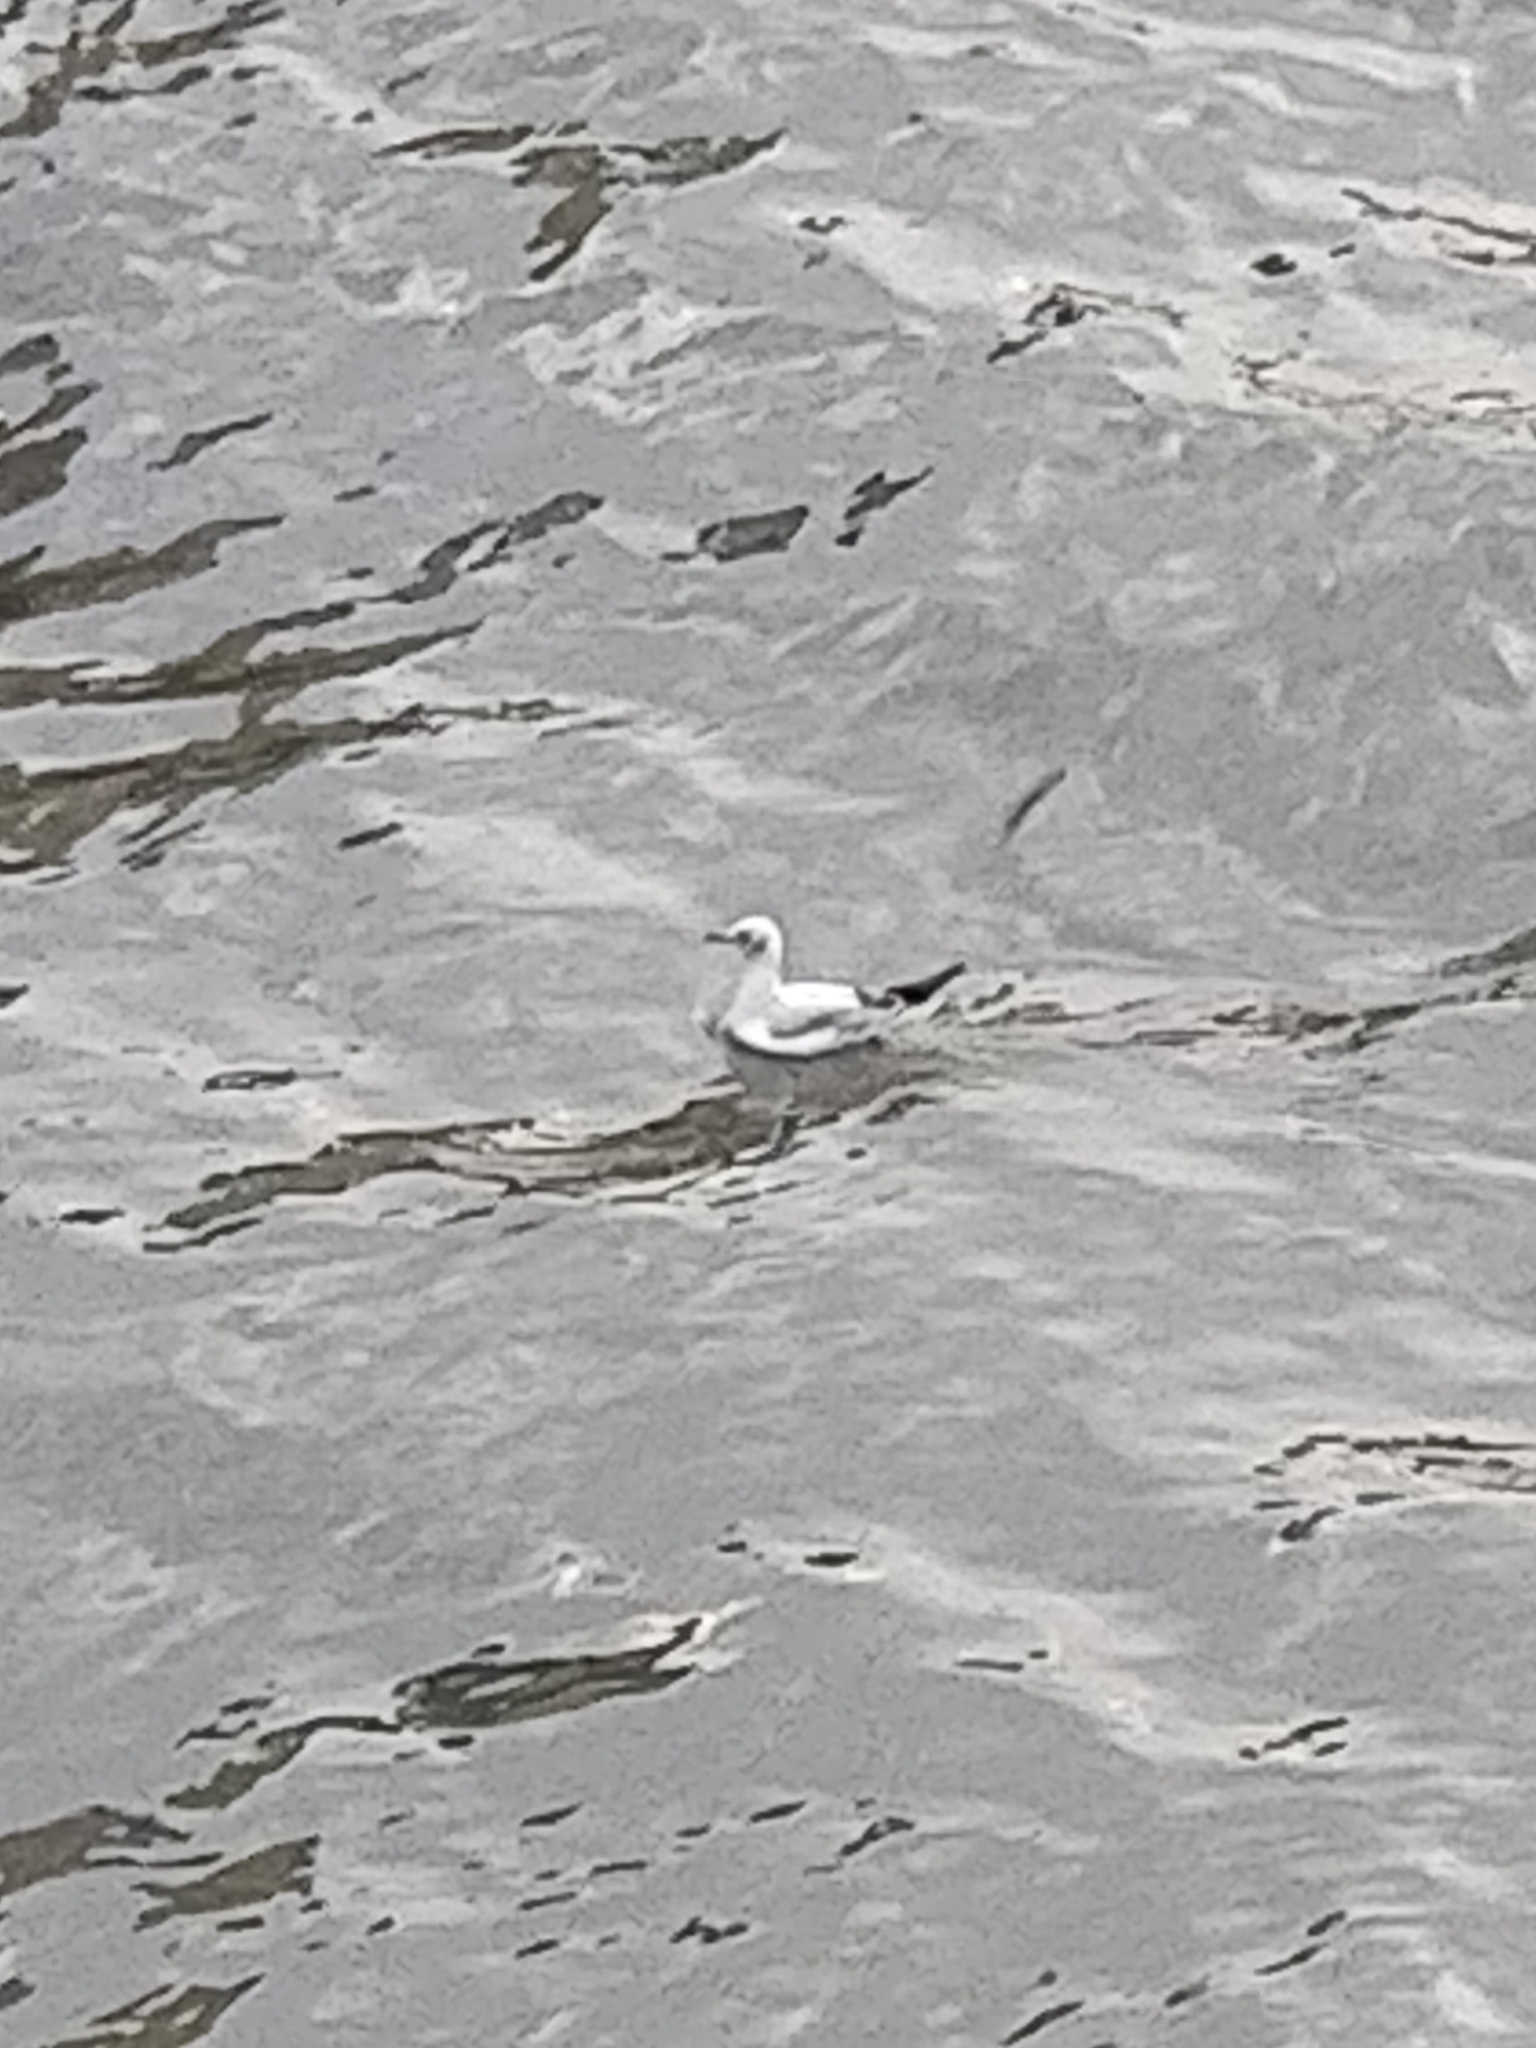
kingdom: Animalia
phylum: Chordata
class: Aves
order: Charadriiformes
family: Laridae
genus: Chroicocephalus
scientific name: Chroicocephalus ridibundus
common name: Black-headed gull
